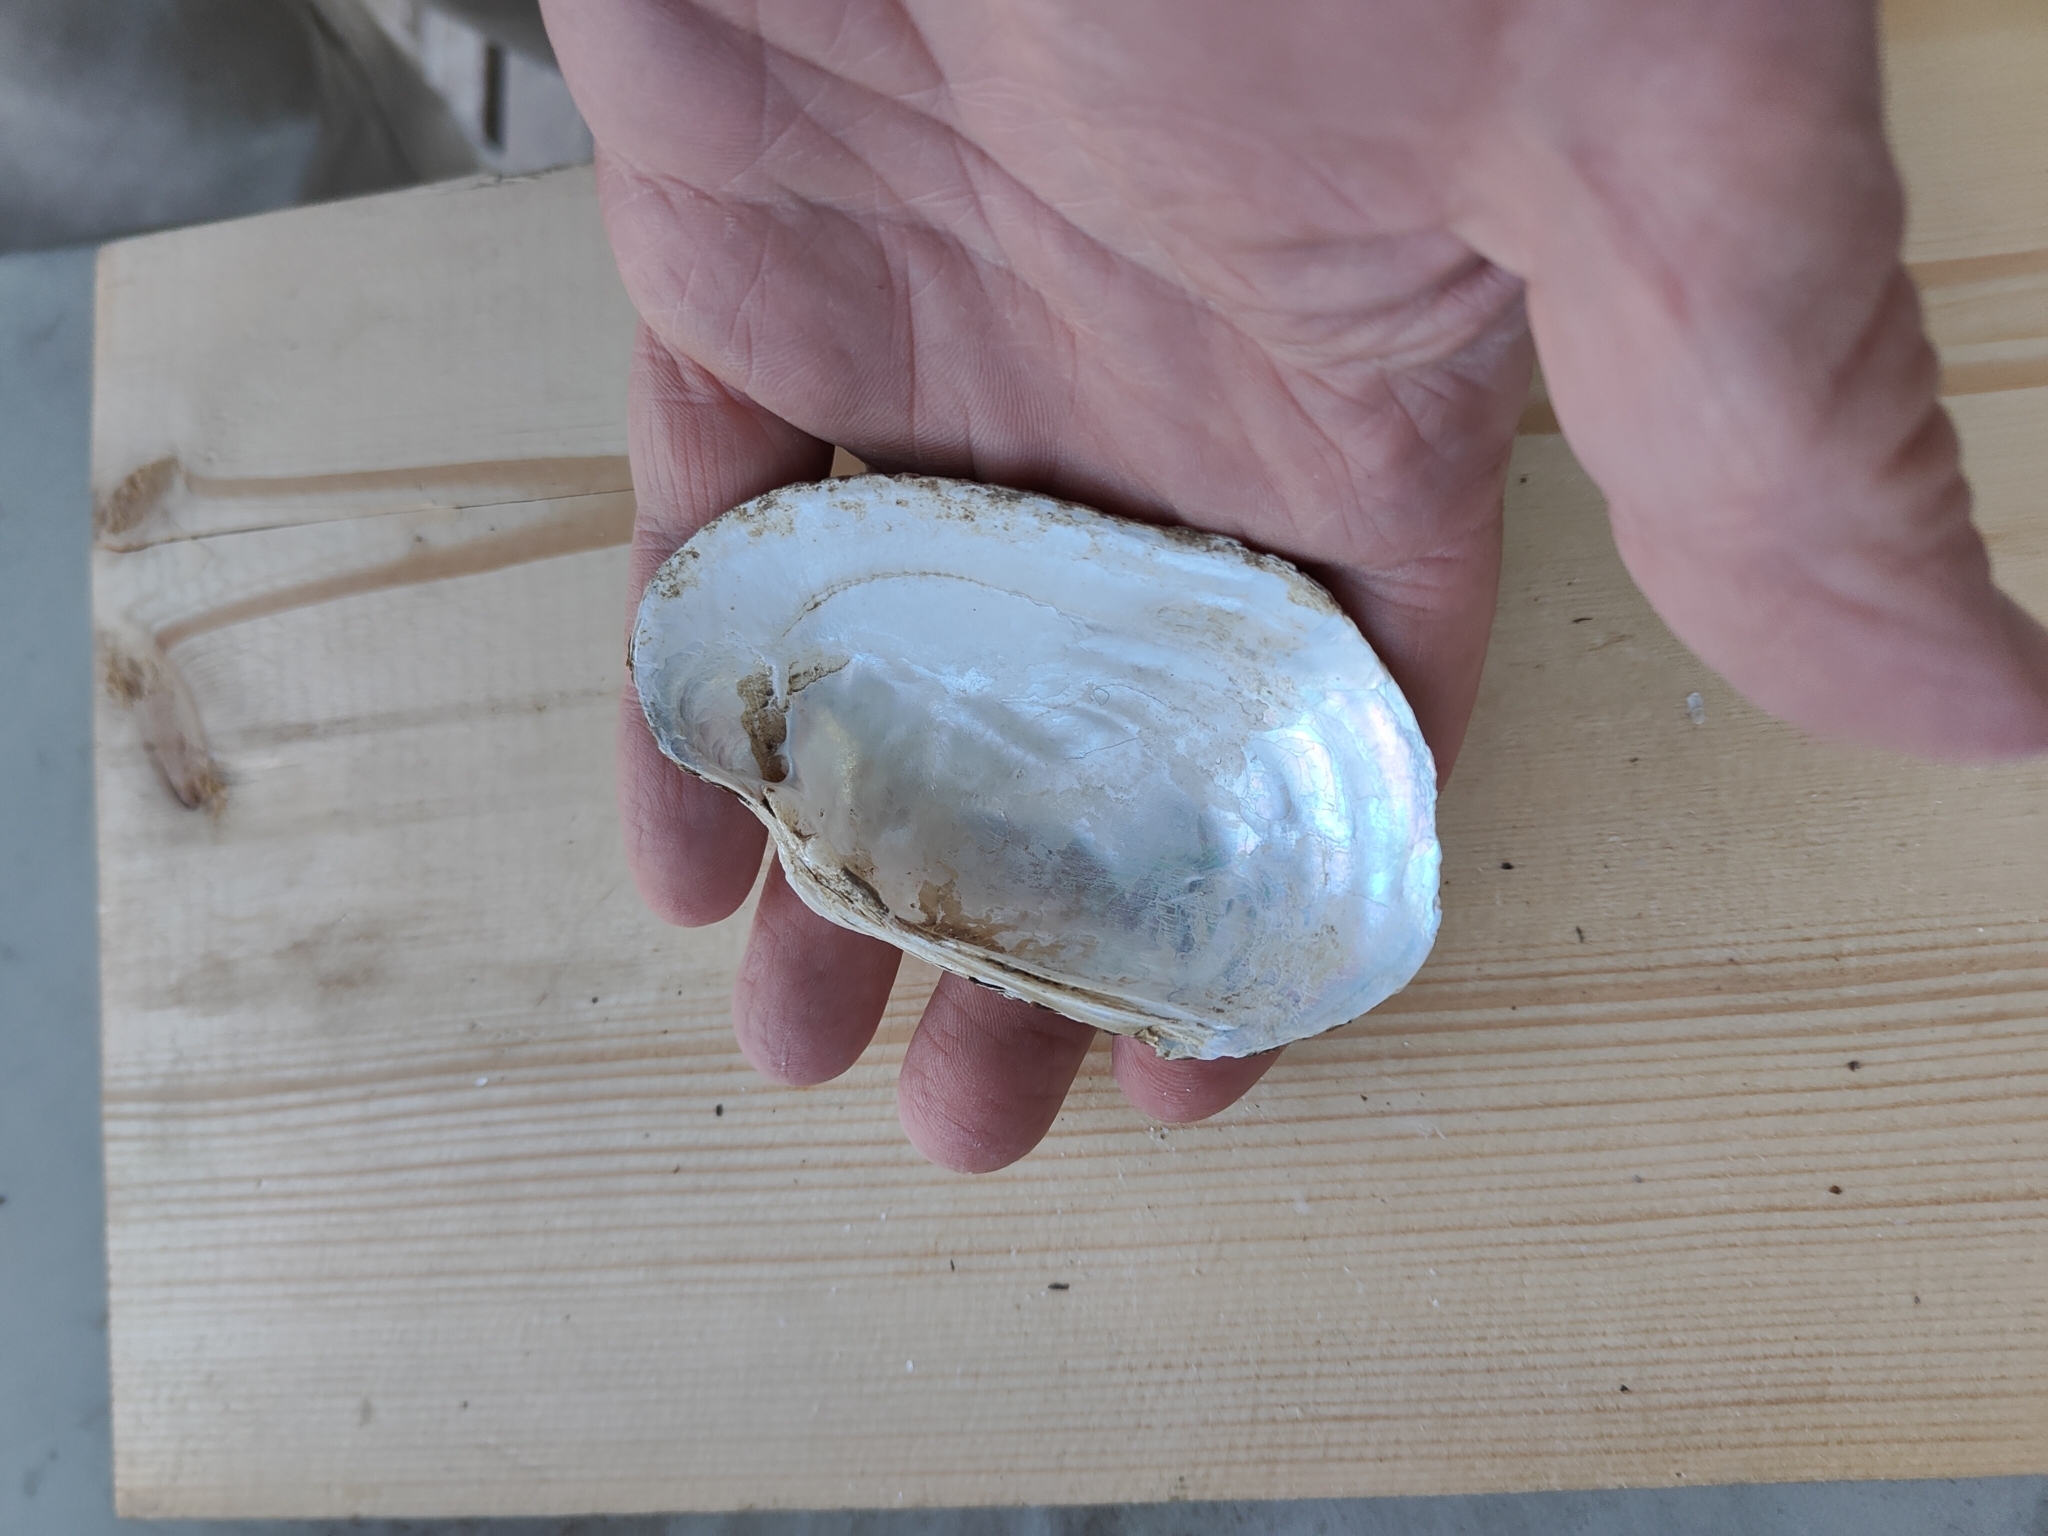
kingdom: Animalia
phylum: Mollusca
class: Bivalvia
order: Unionida
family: Unionidae
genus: Lampsilis
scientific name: Lampsilis siliquoidea
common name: Fatmucket
